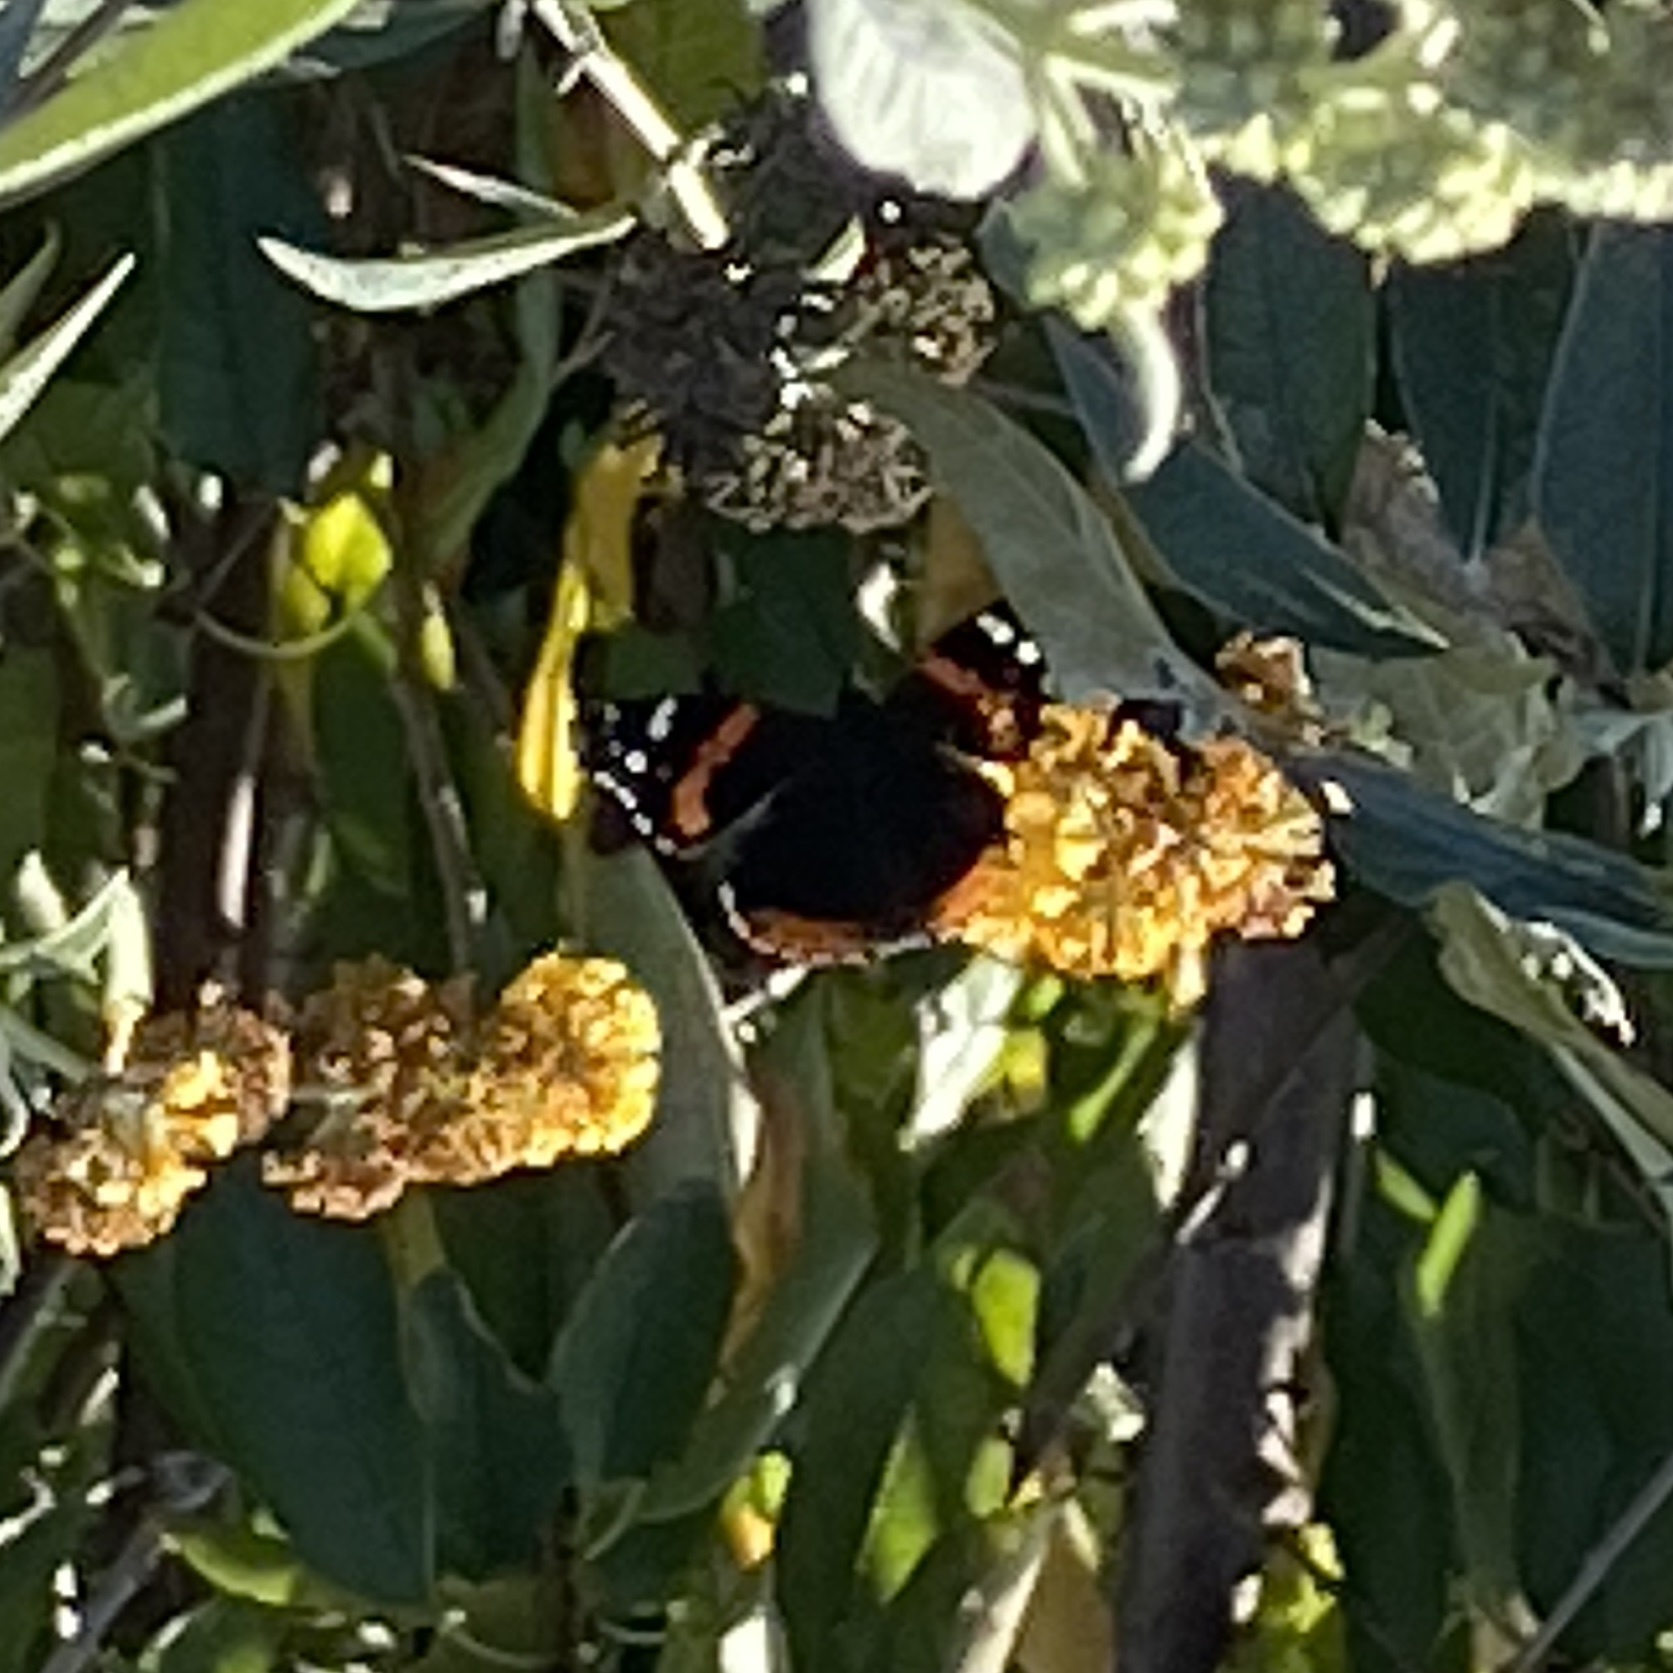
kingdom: Animalia
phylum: Arthropoda
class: Insecta
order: Lepidoptera
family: Nymphalidae
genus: Vanessa
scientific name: Vanessa atalanta
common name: Red admiral
